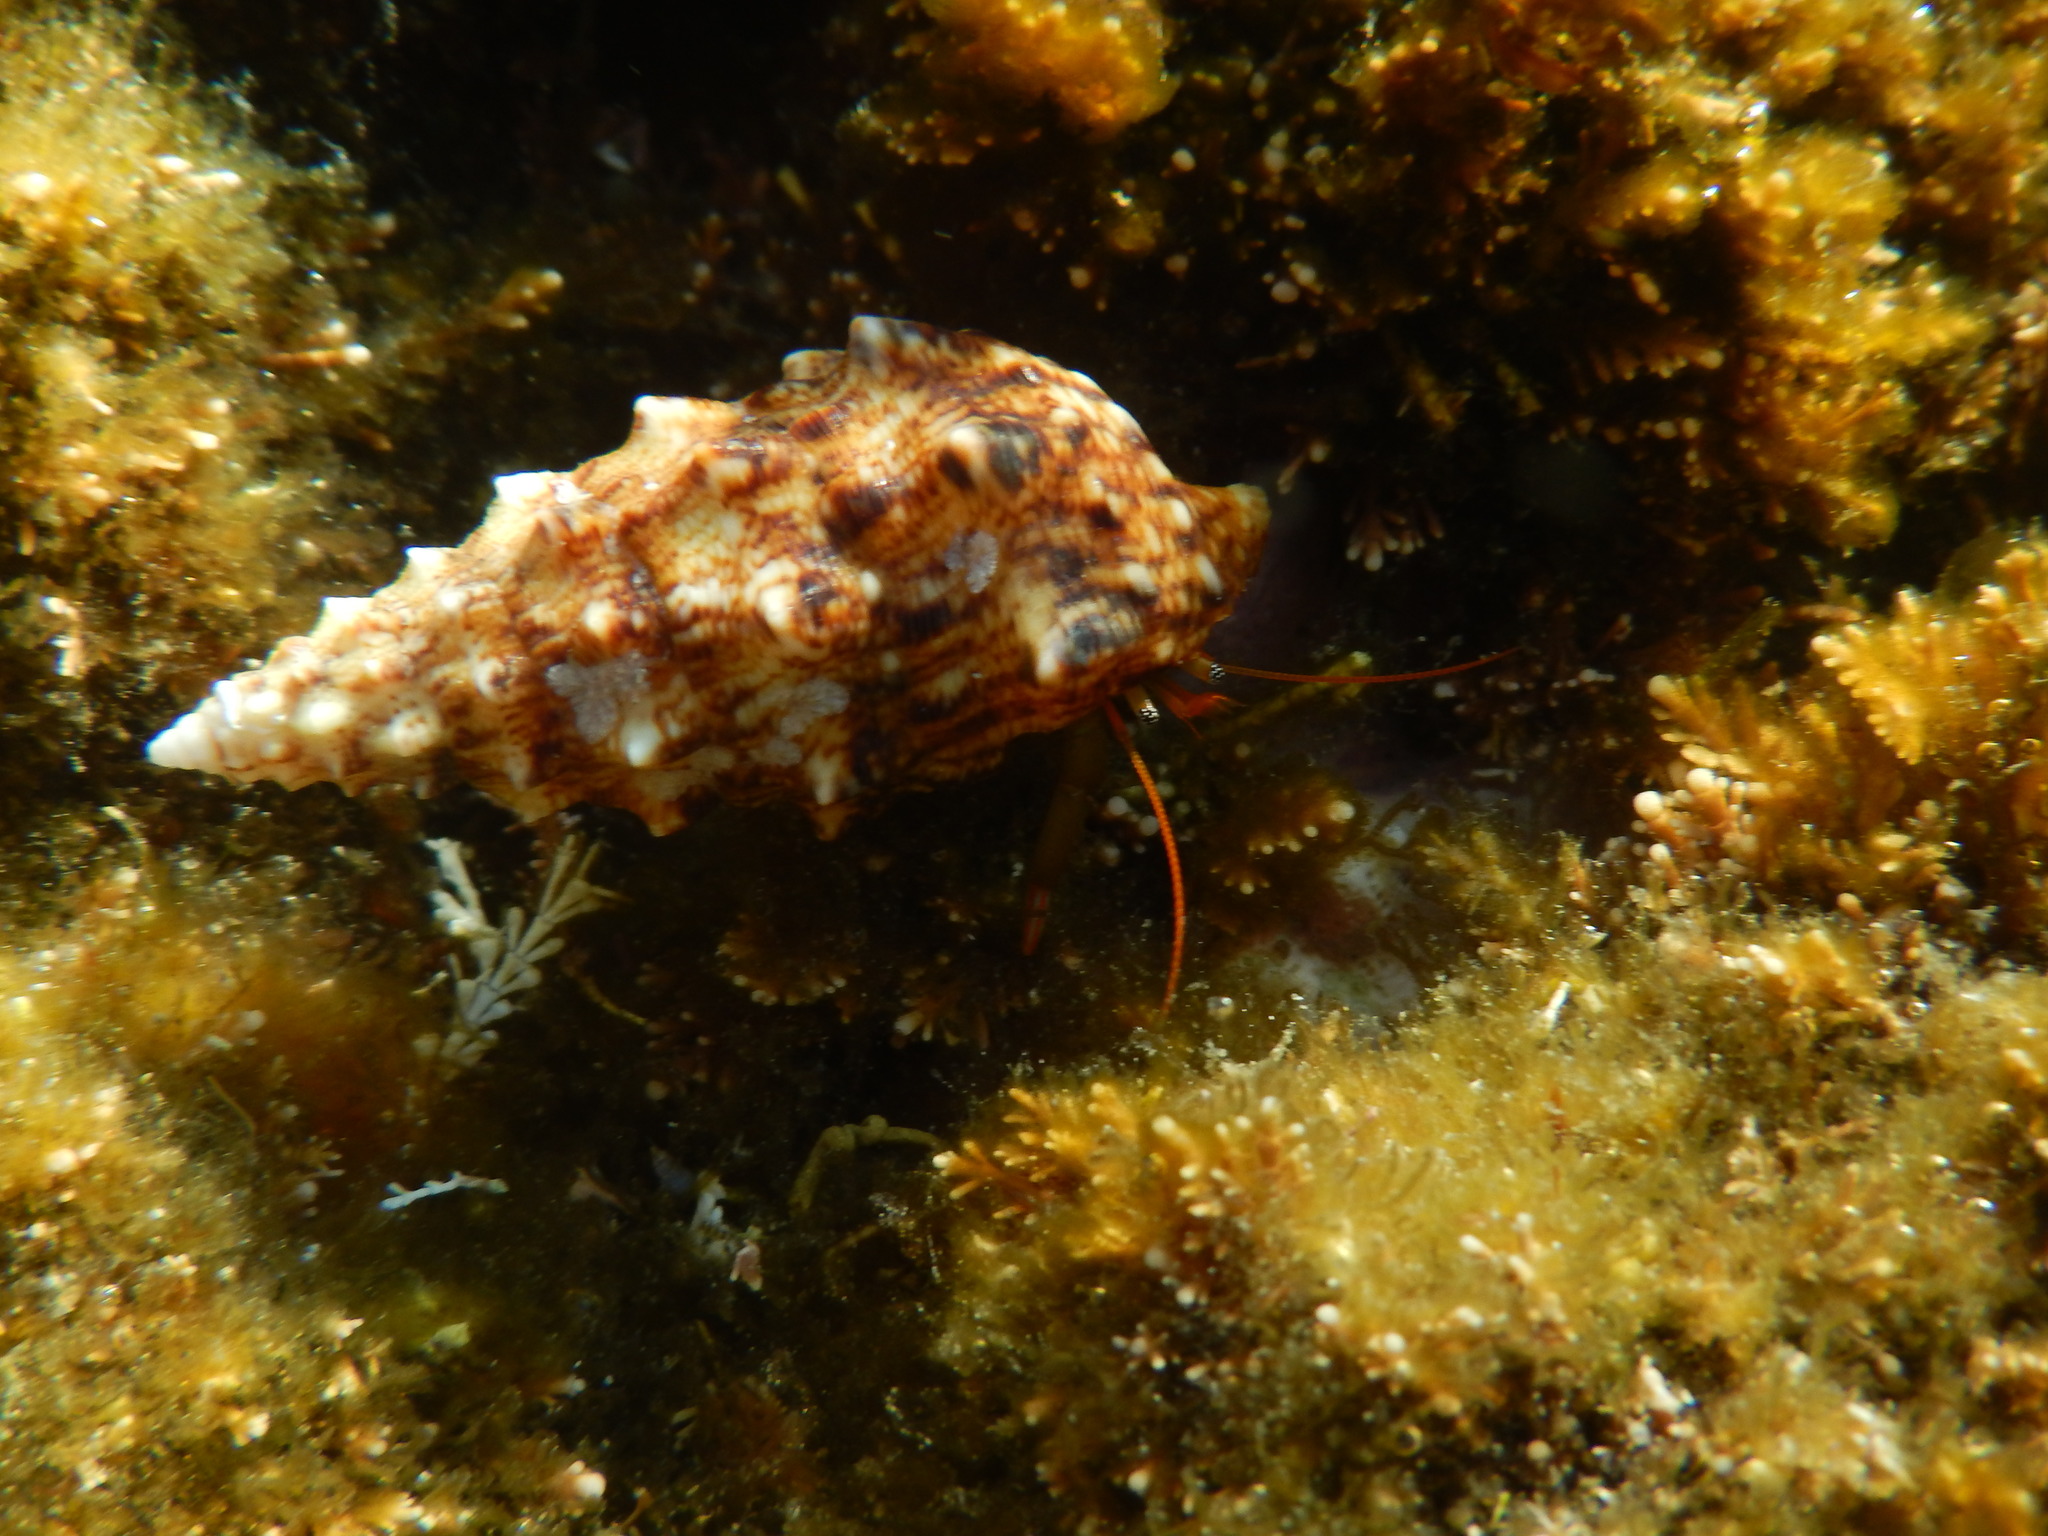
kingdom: Animalia
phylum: Arthropoda
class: Malacostraca
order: Decapoda
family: Diogenidae
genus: Clibanarius
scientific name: Clibanarius erythropus
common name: Hermit crab
